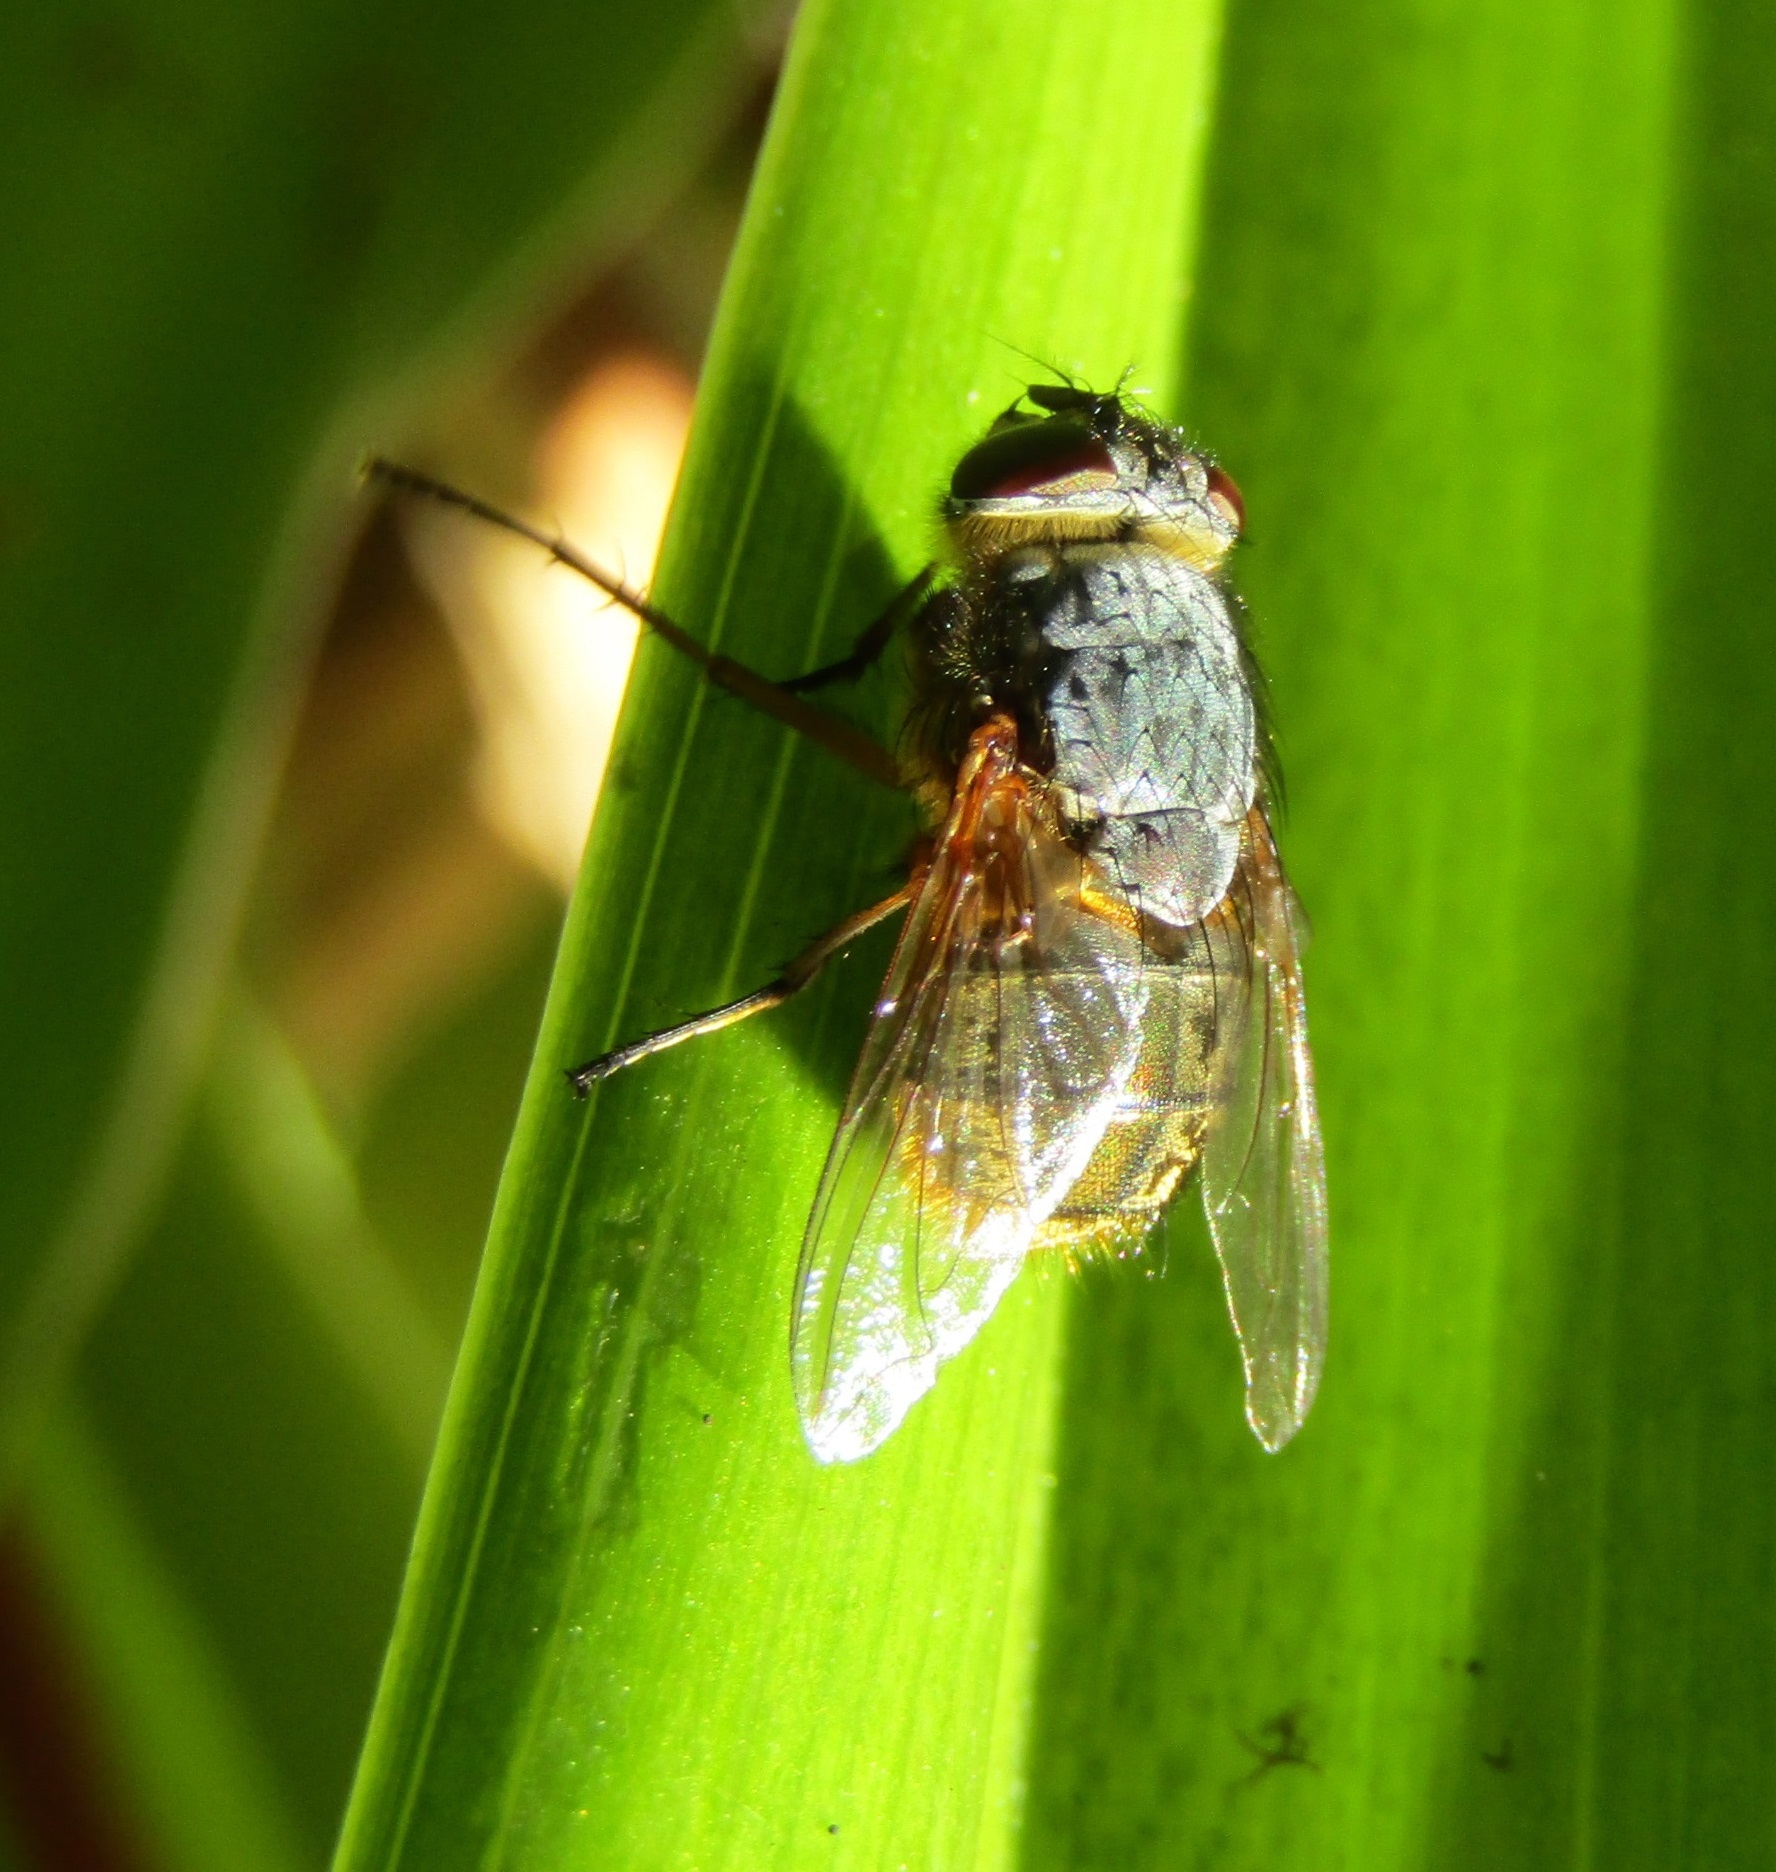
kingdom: Animalia
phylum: Arthropoda
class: Insecta
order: Diptera
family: Calliphoridae
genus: Calliphora
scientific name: Calliphora stygia
